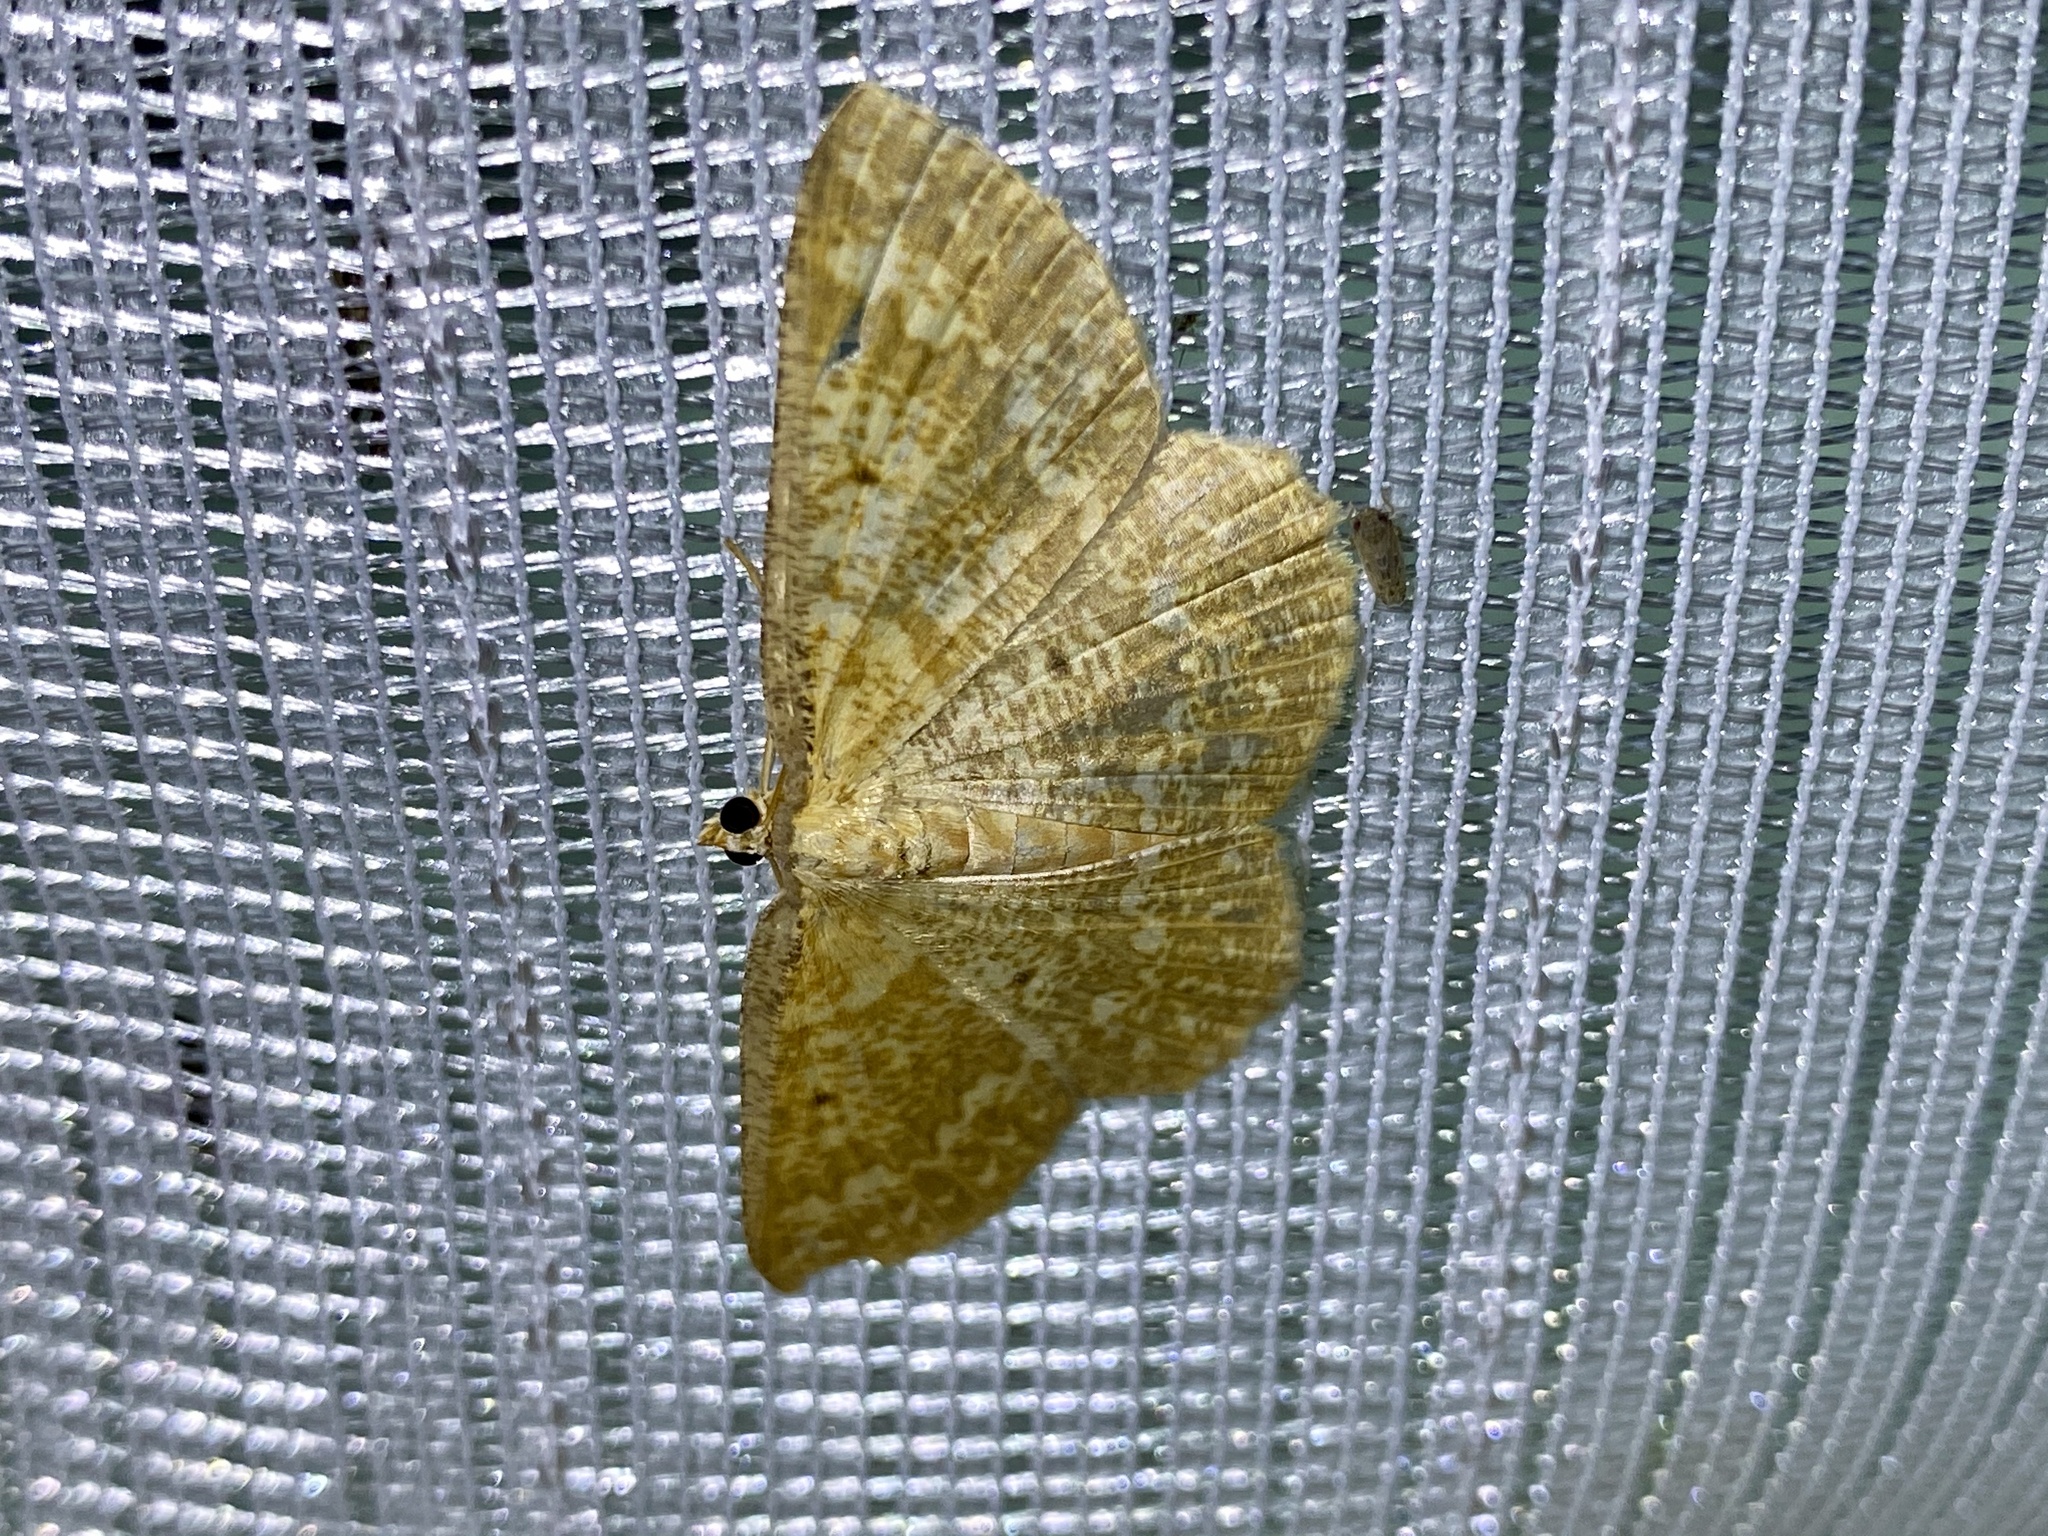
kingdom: Animalia
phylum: Arthropoda
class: Insecta
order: Lepidoptera
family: Geometridae
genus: Synegia
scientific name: Synegia hadassa
